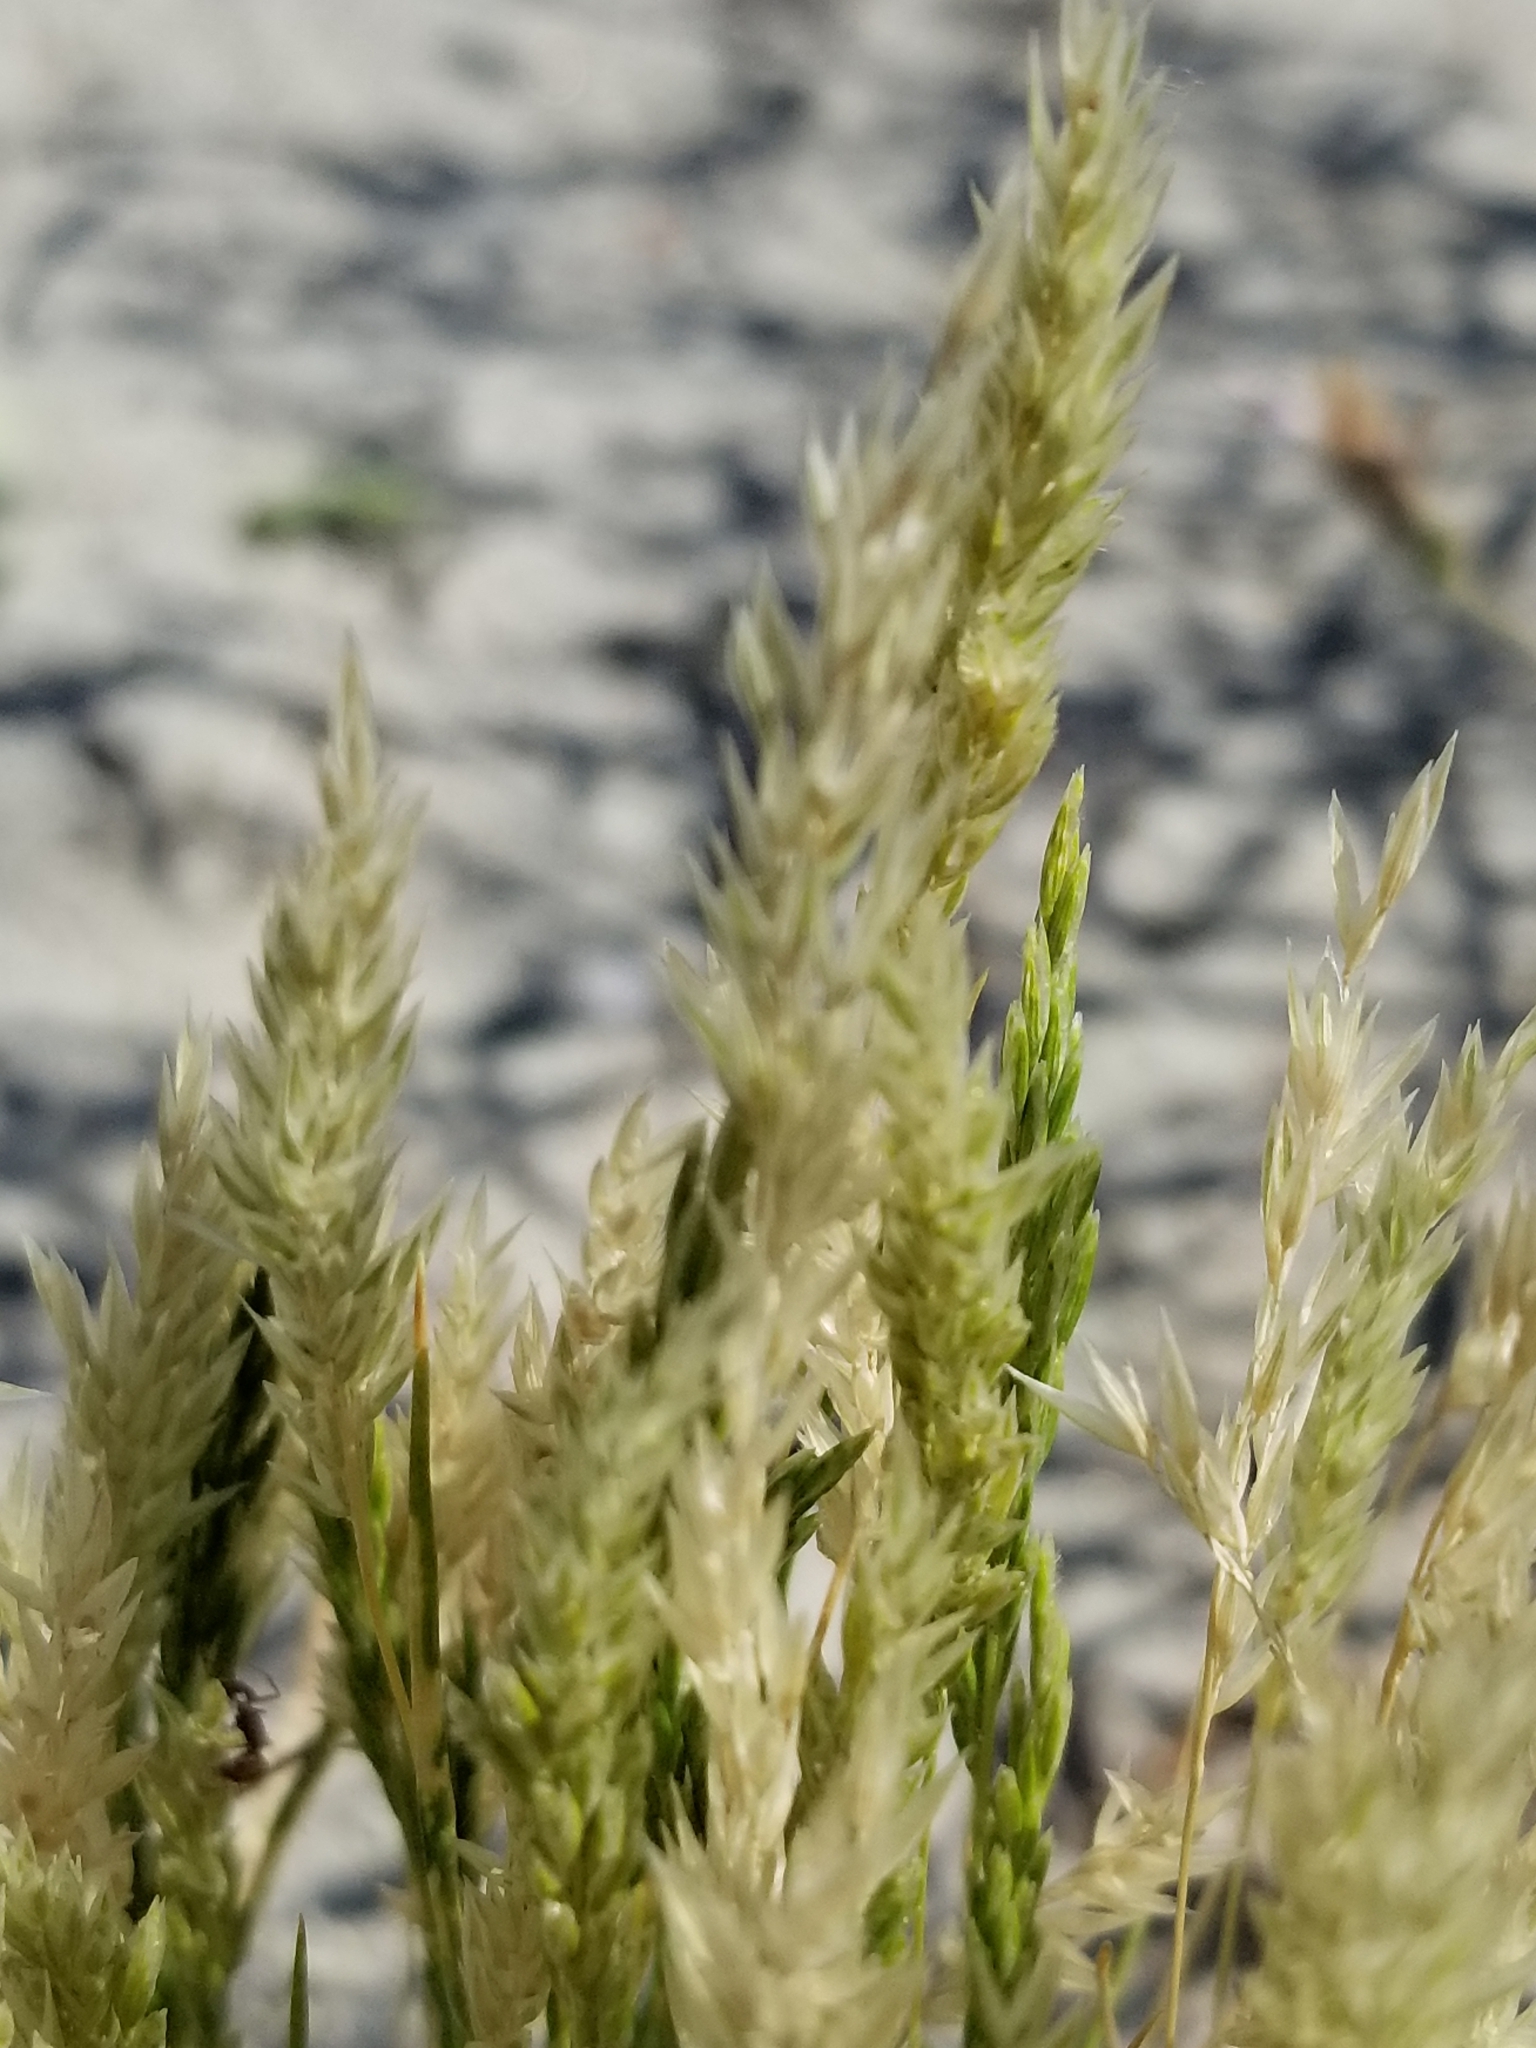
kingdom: Plantae
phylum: Tracheophyta
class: Liliopsida
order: Poales
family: Poaceae
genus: Schismus
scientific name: Schismus barbatus
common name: Kelch-grass
